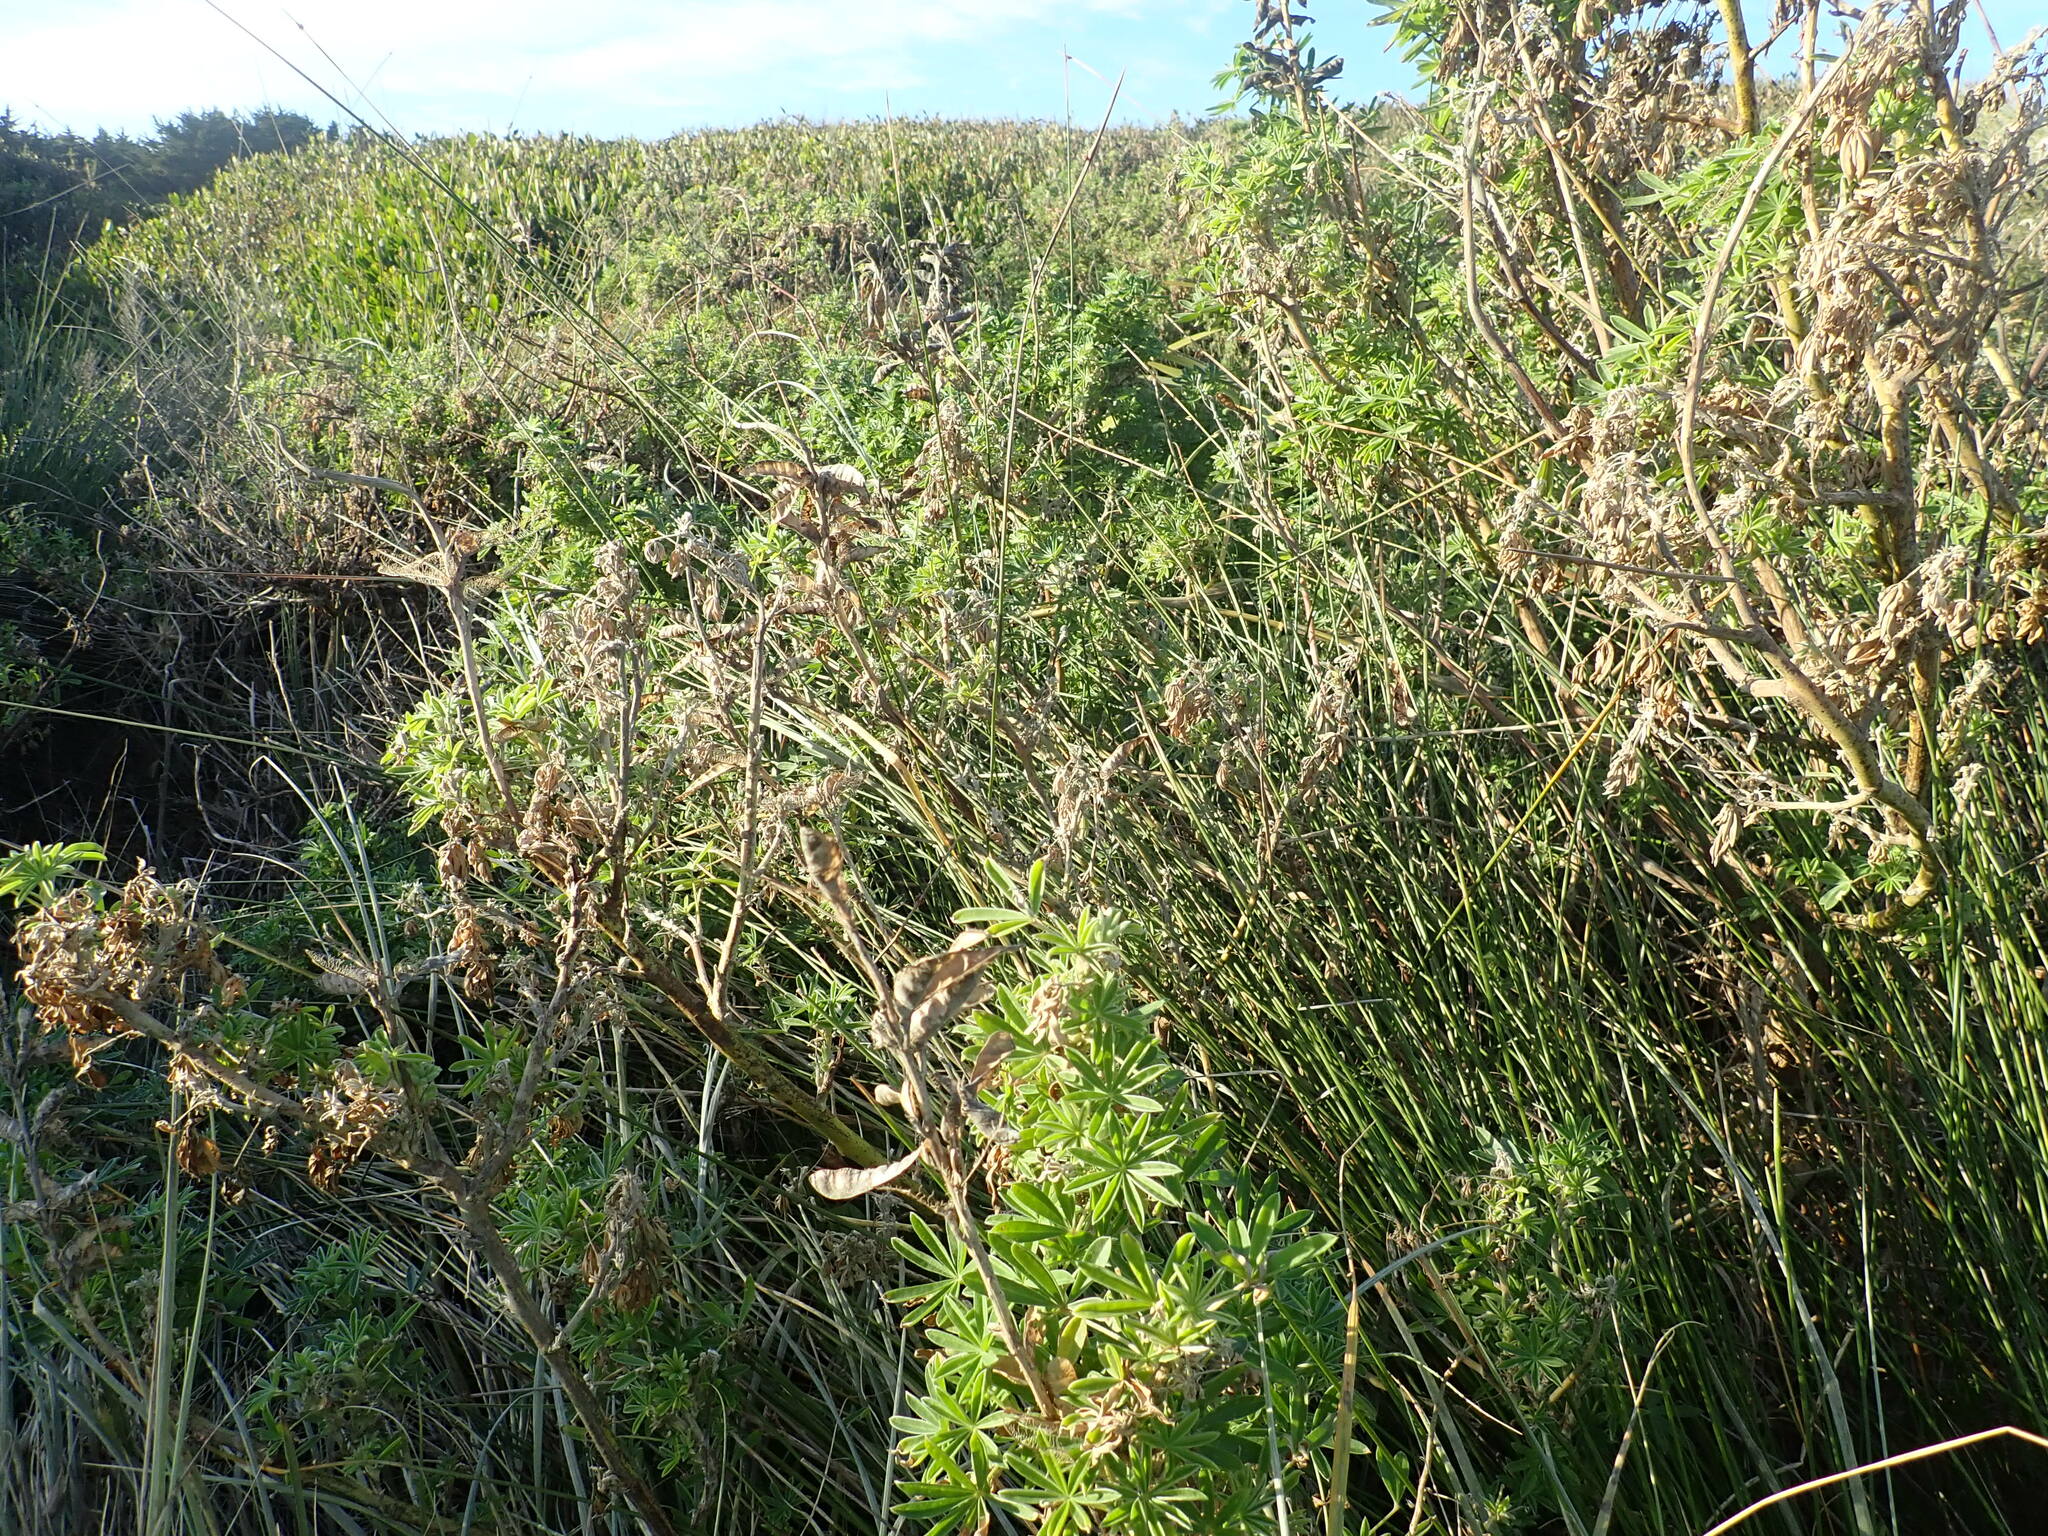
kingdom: Plantae
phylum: Tracheophyta
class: Magnoliopsida
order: Fabales
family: Fabaceae
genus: Lupinus
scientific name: Lupinus arboreus
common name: Yellow bush lupine
